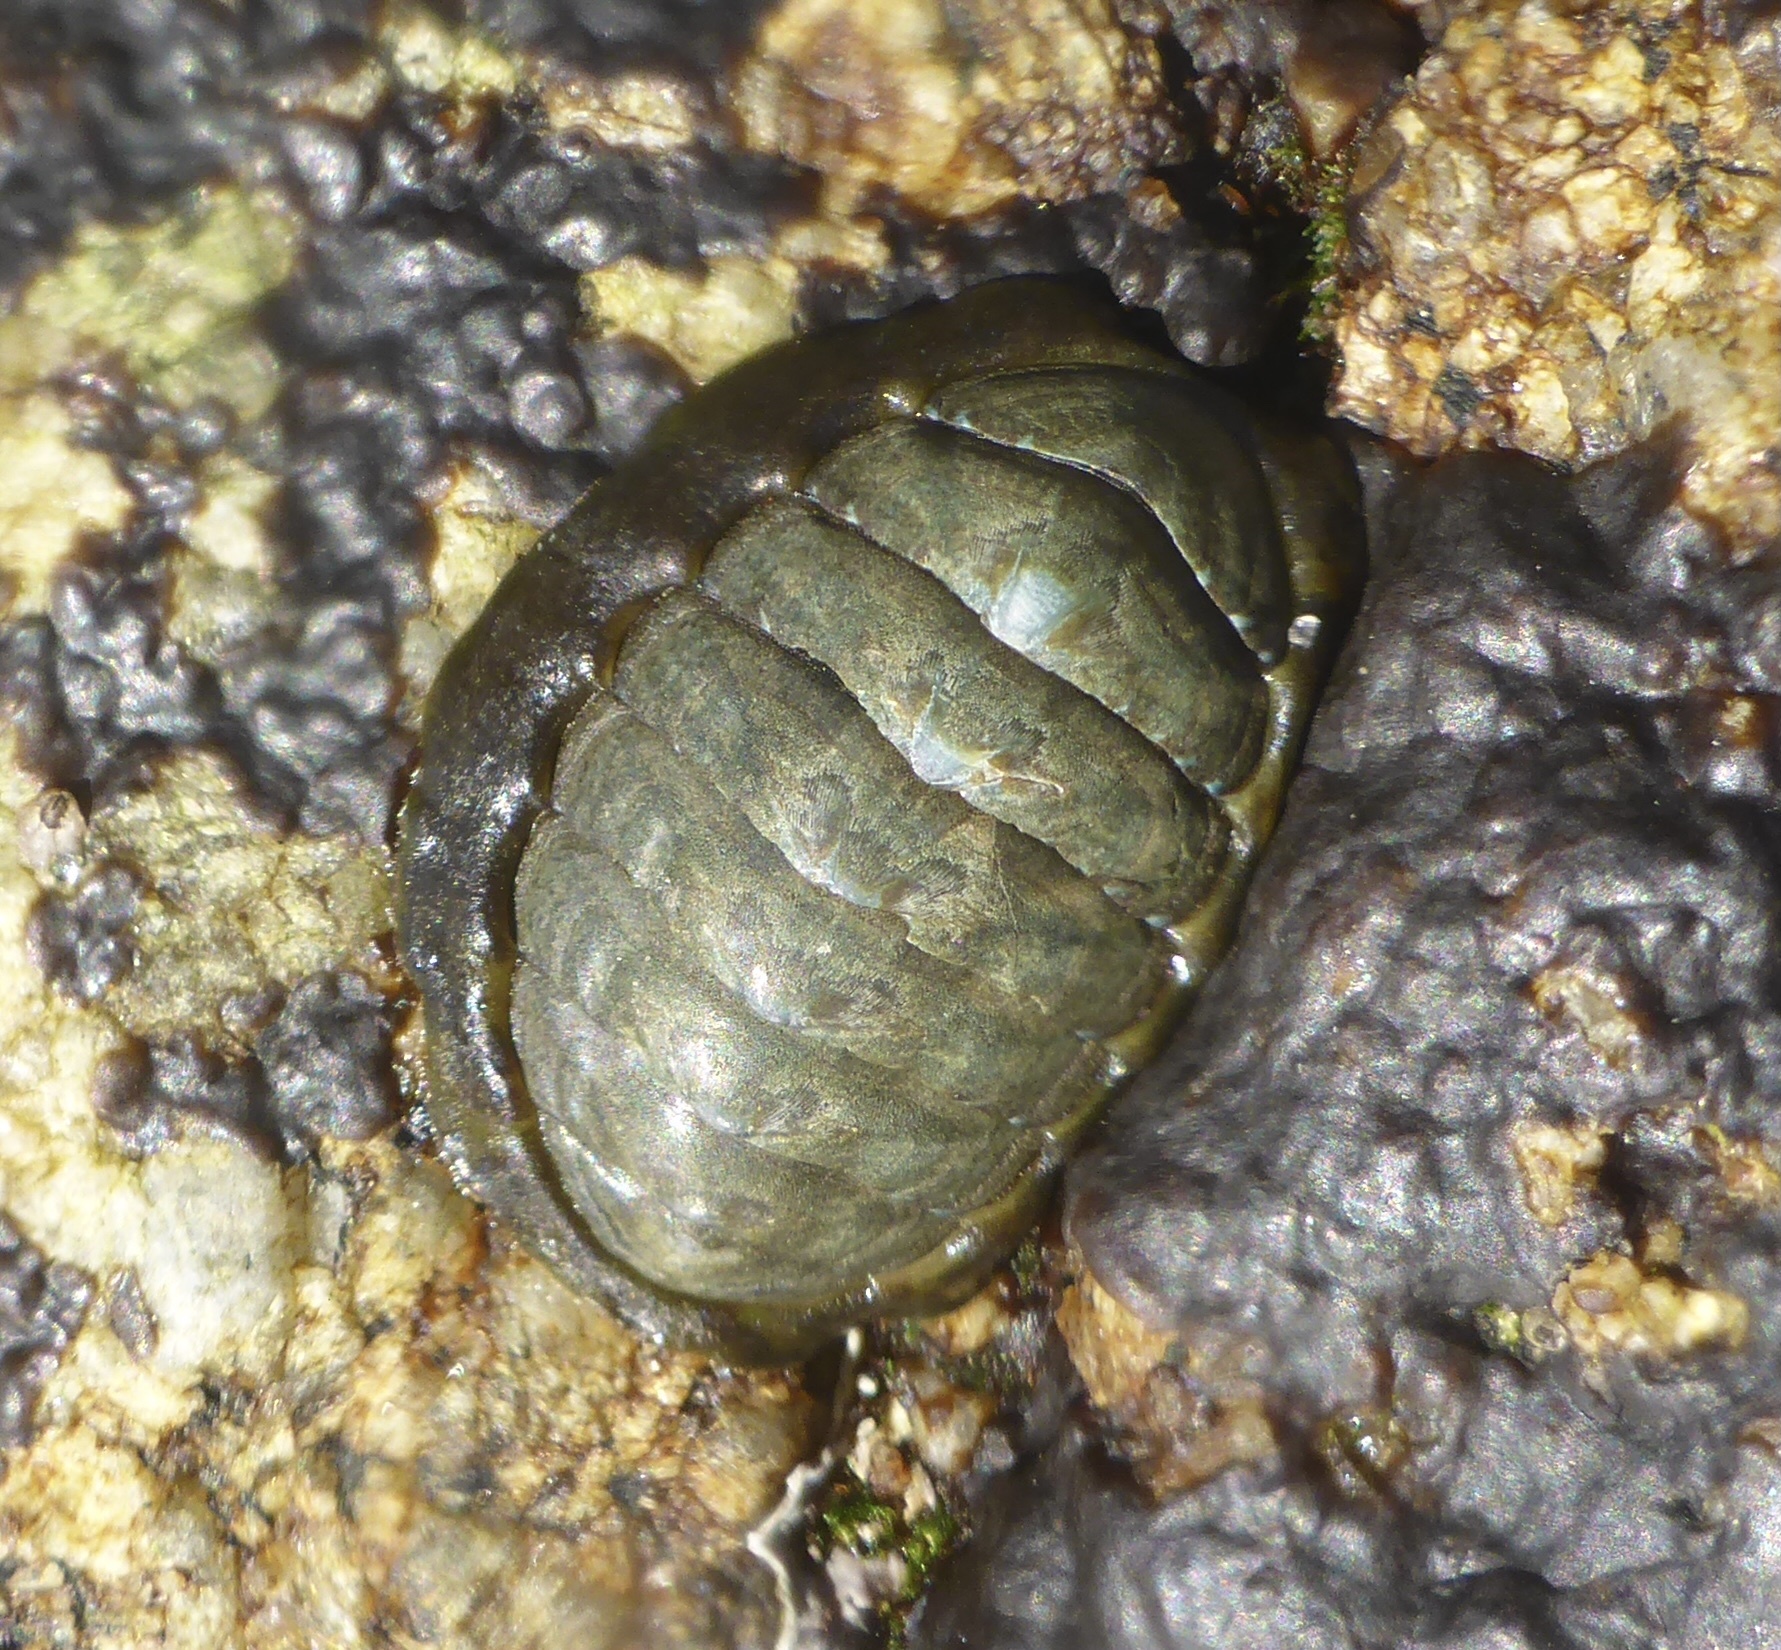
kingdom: Animalia
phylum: Mollusca
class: Polyplacophora
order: Chitonida
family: Tonicellidae
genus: Cyanoplax
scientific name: Cyanoplax hartwegii
